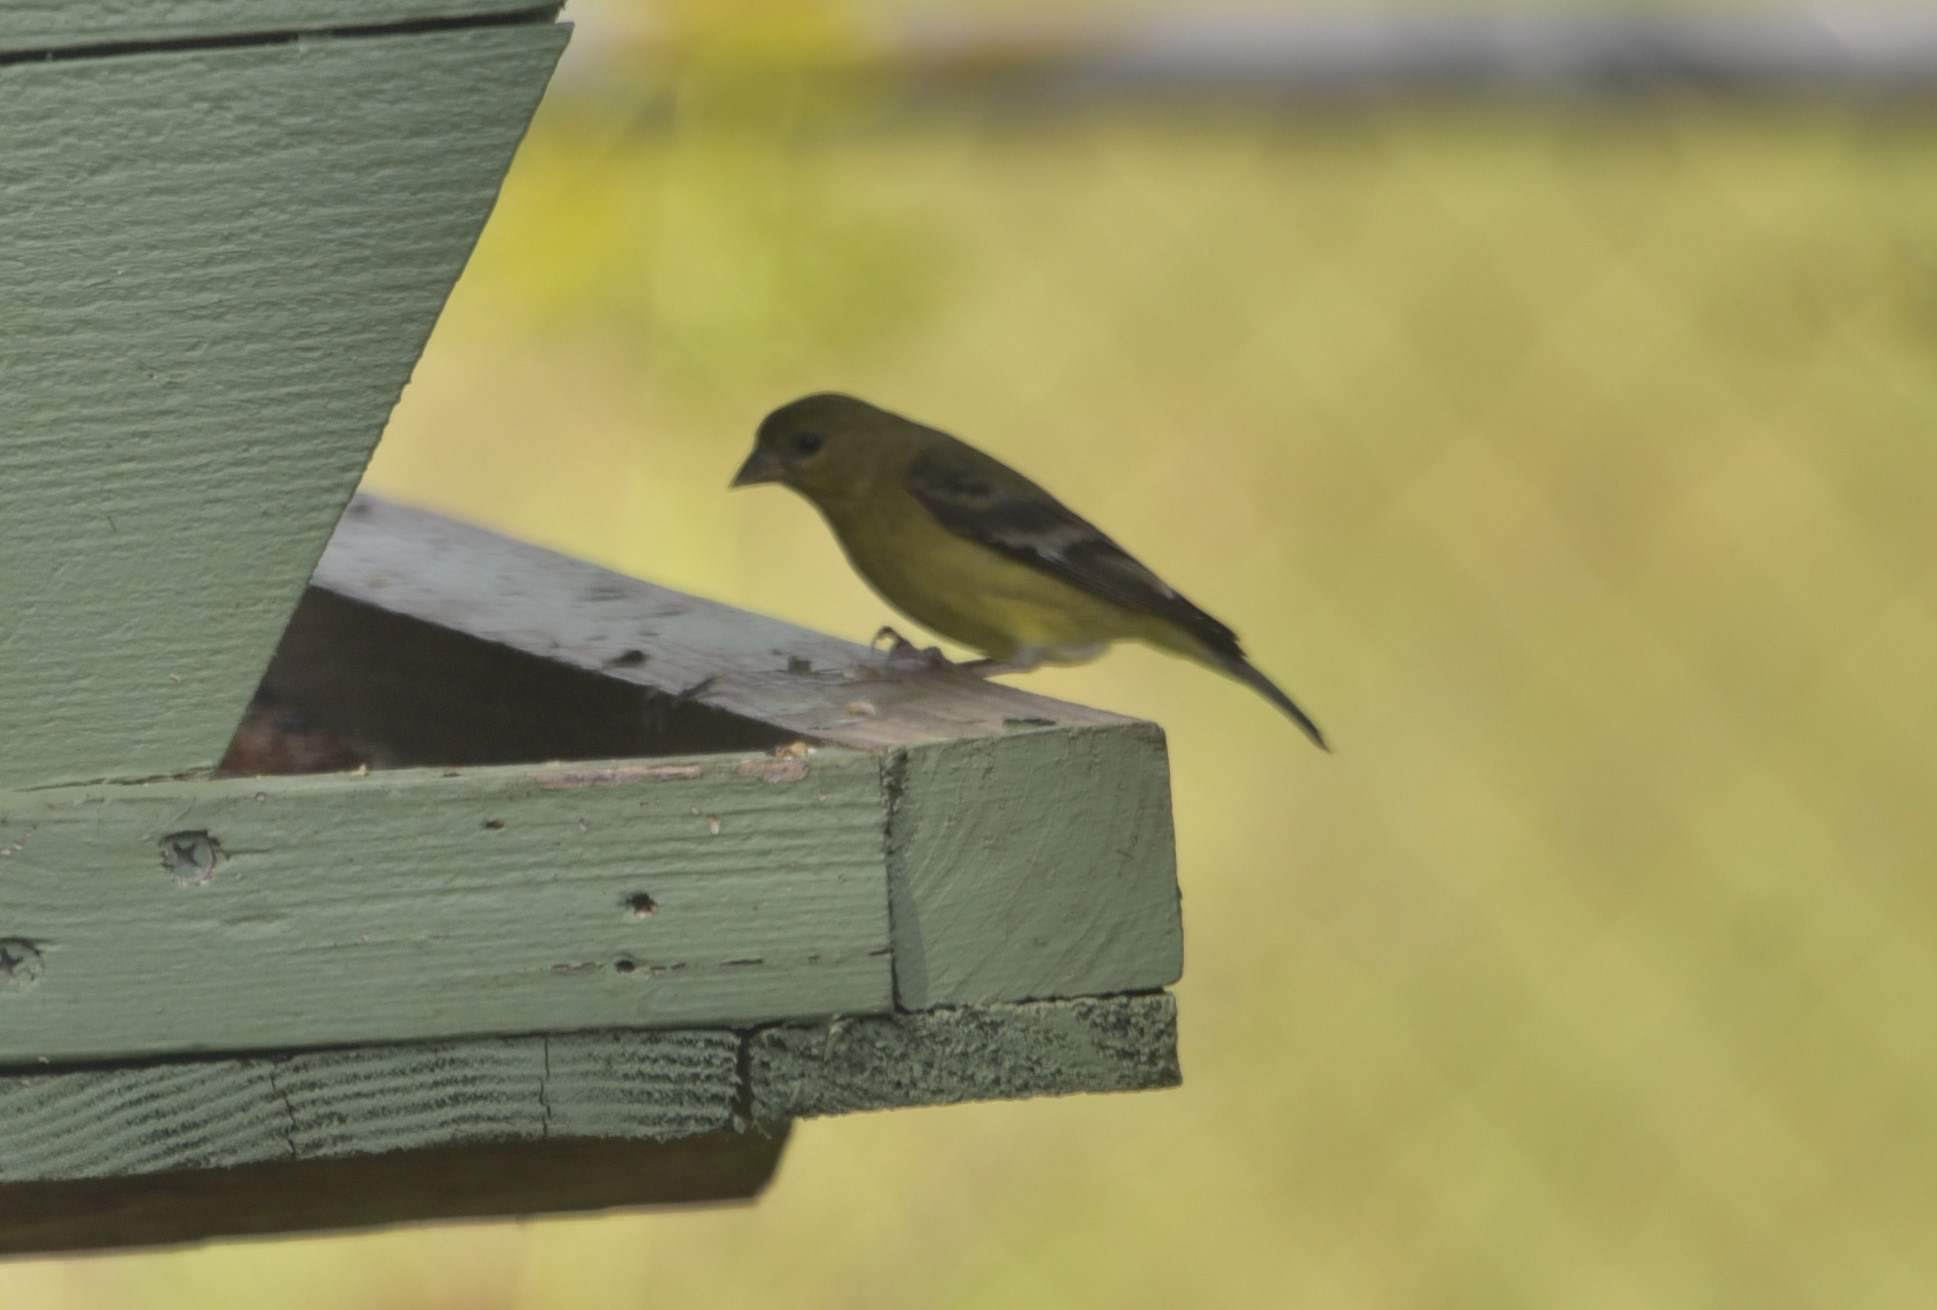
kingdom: Animalia
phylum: Chordata
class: Aves
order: Passeriformes
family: Fringillidae
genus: Spinus
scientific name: Spinus psaltria
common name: Lesser goldfinch
